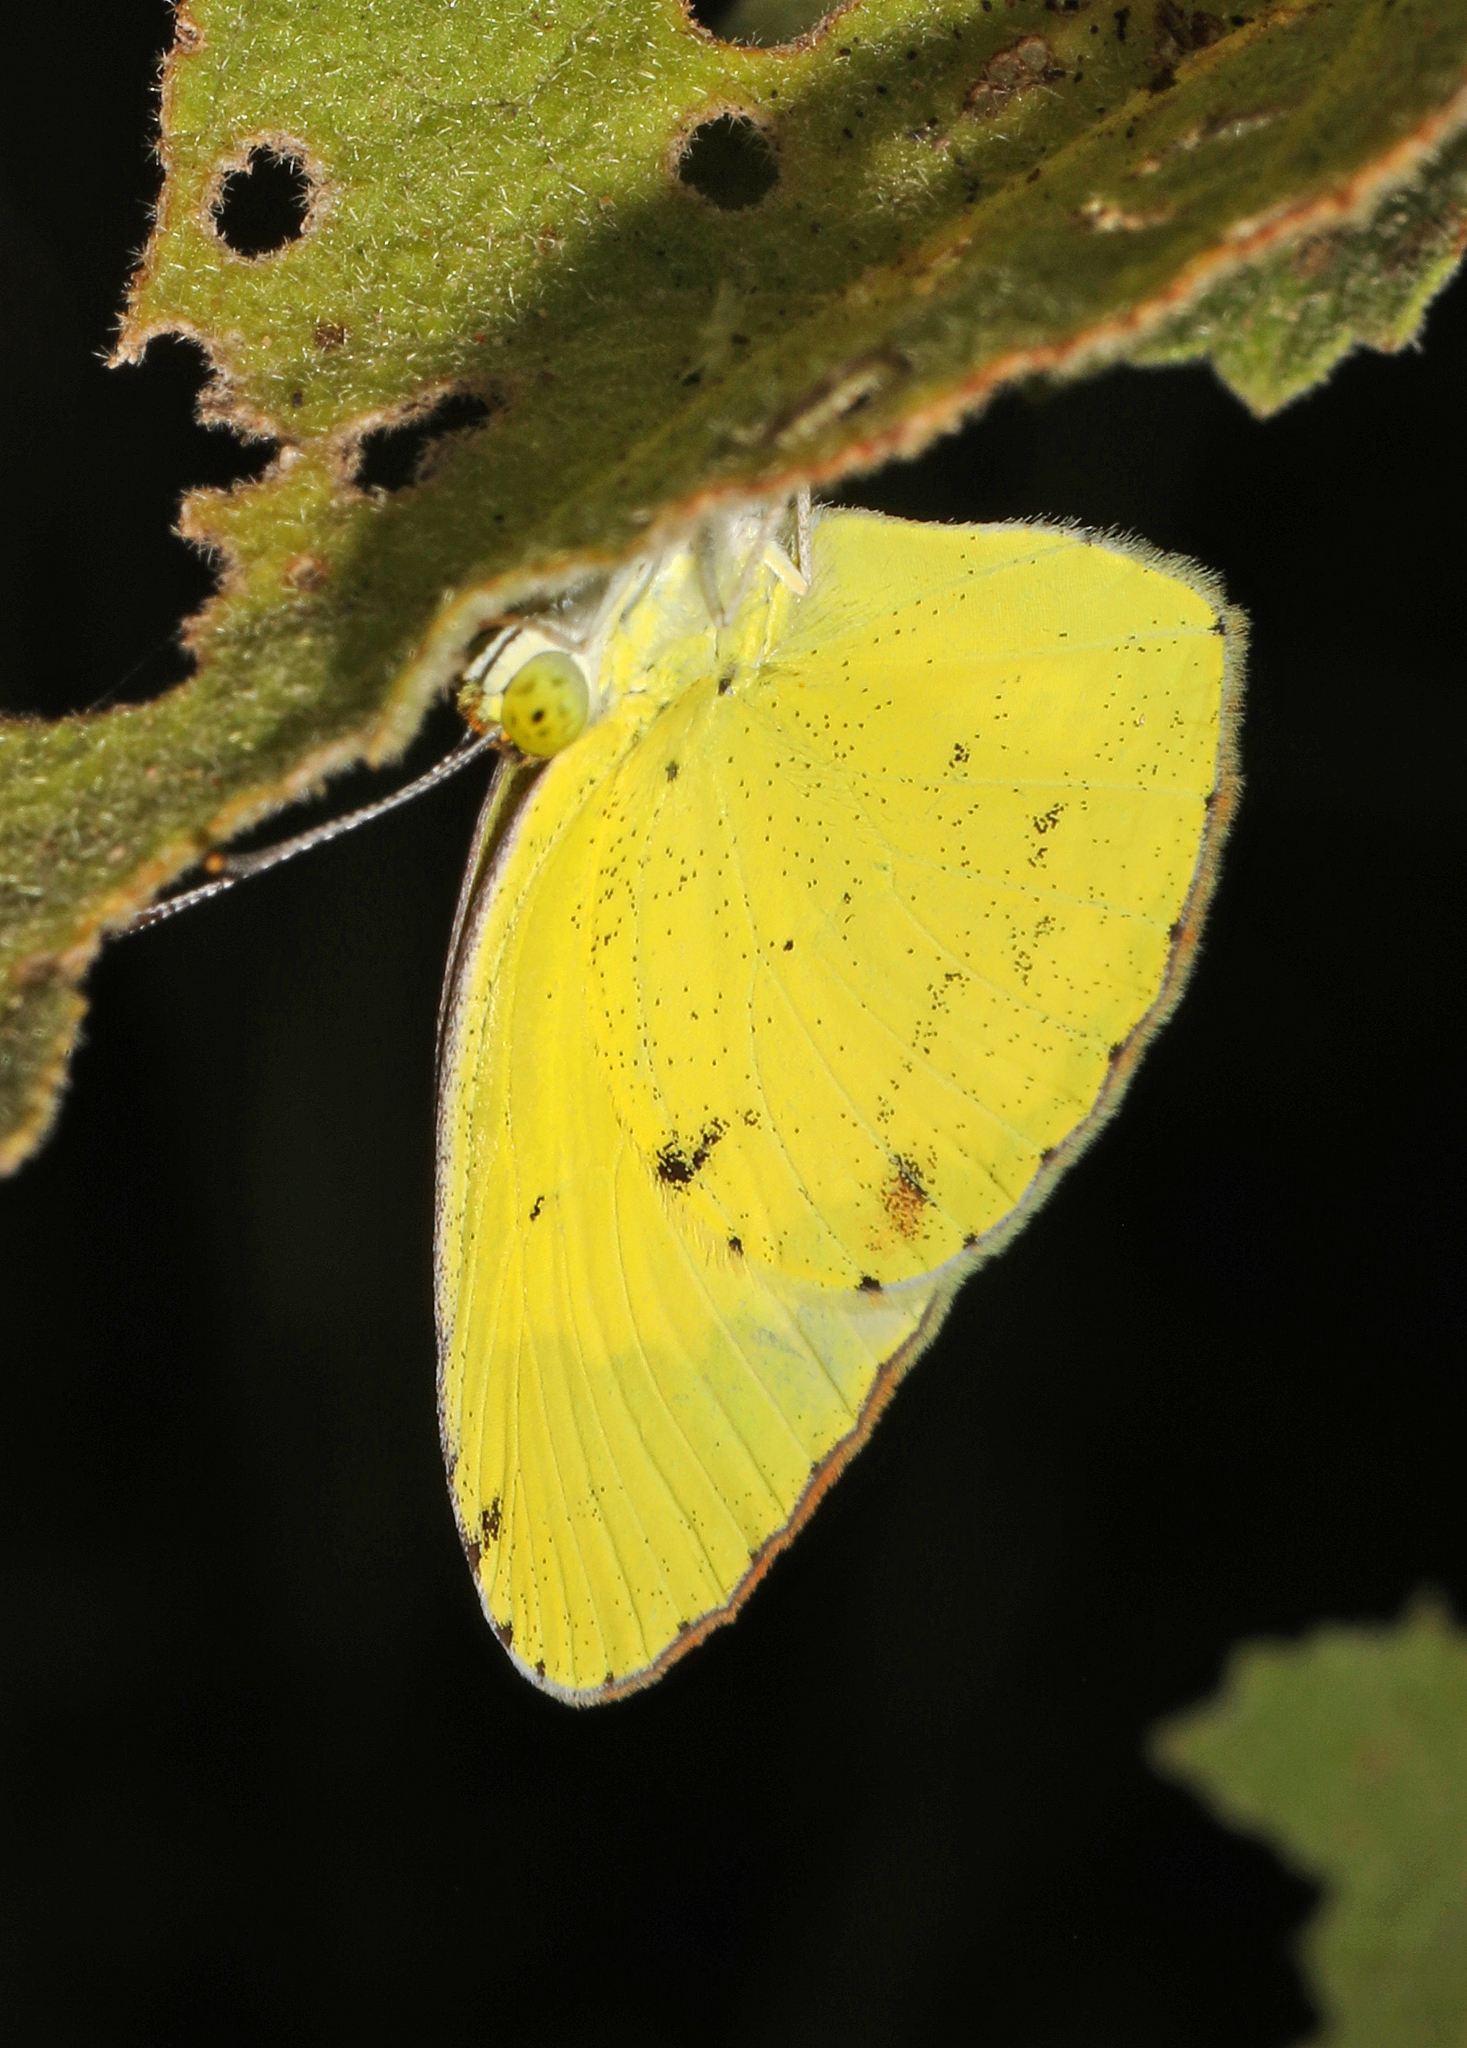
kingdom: Animalia
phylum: Arthropoda
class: Insecta
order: Lepidoptera
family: Pieridae
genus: Pyrisitia
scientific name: Pyrisitia lisa
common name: Little yellow
